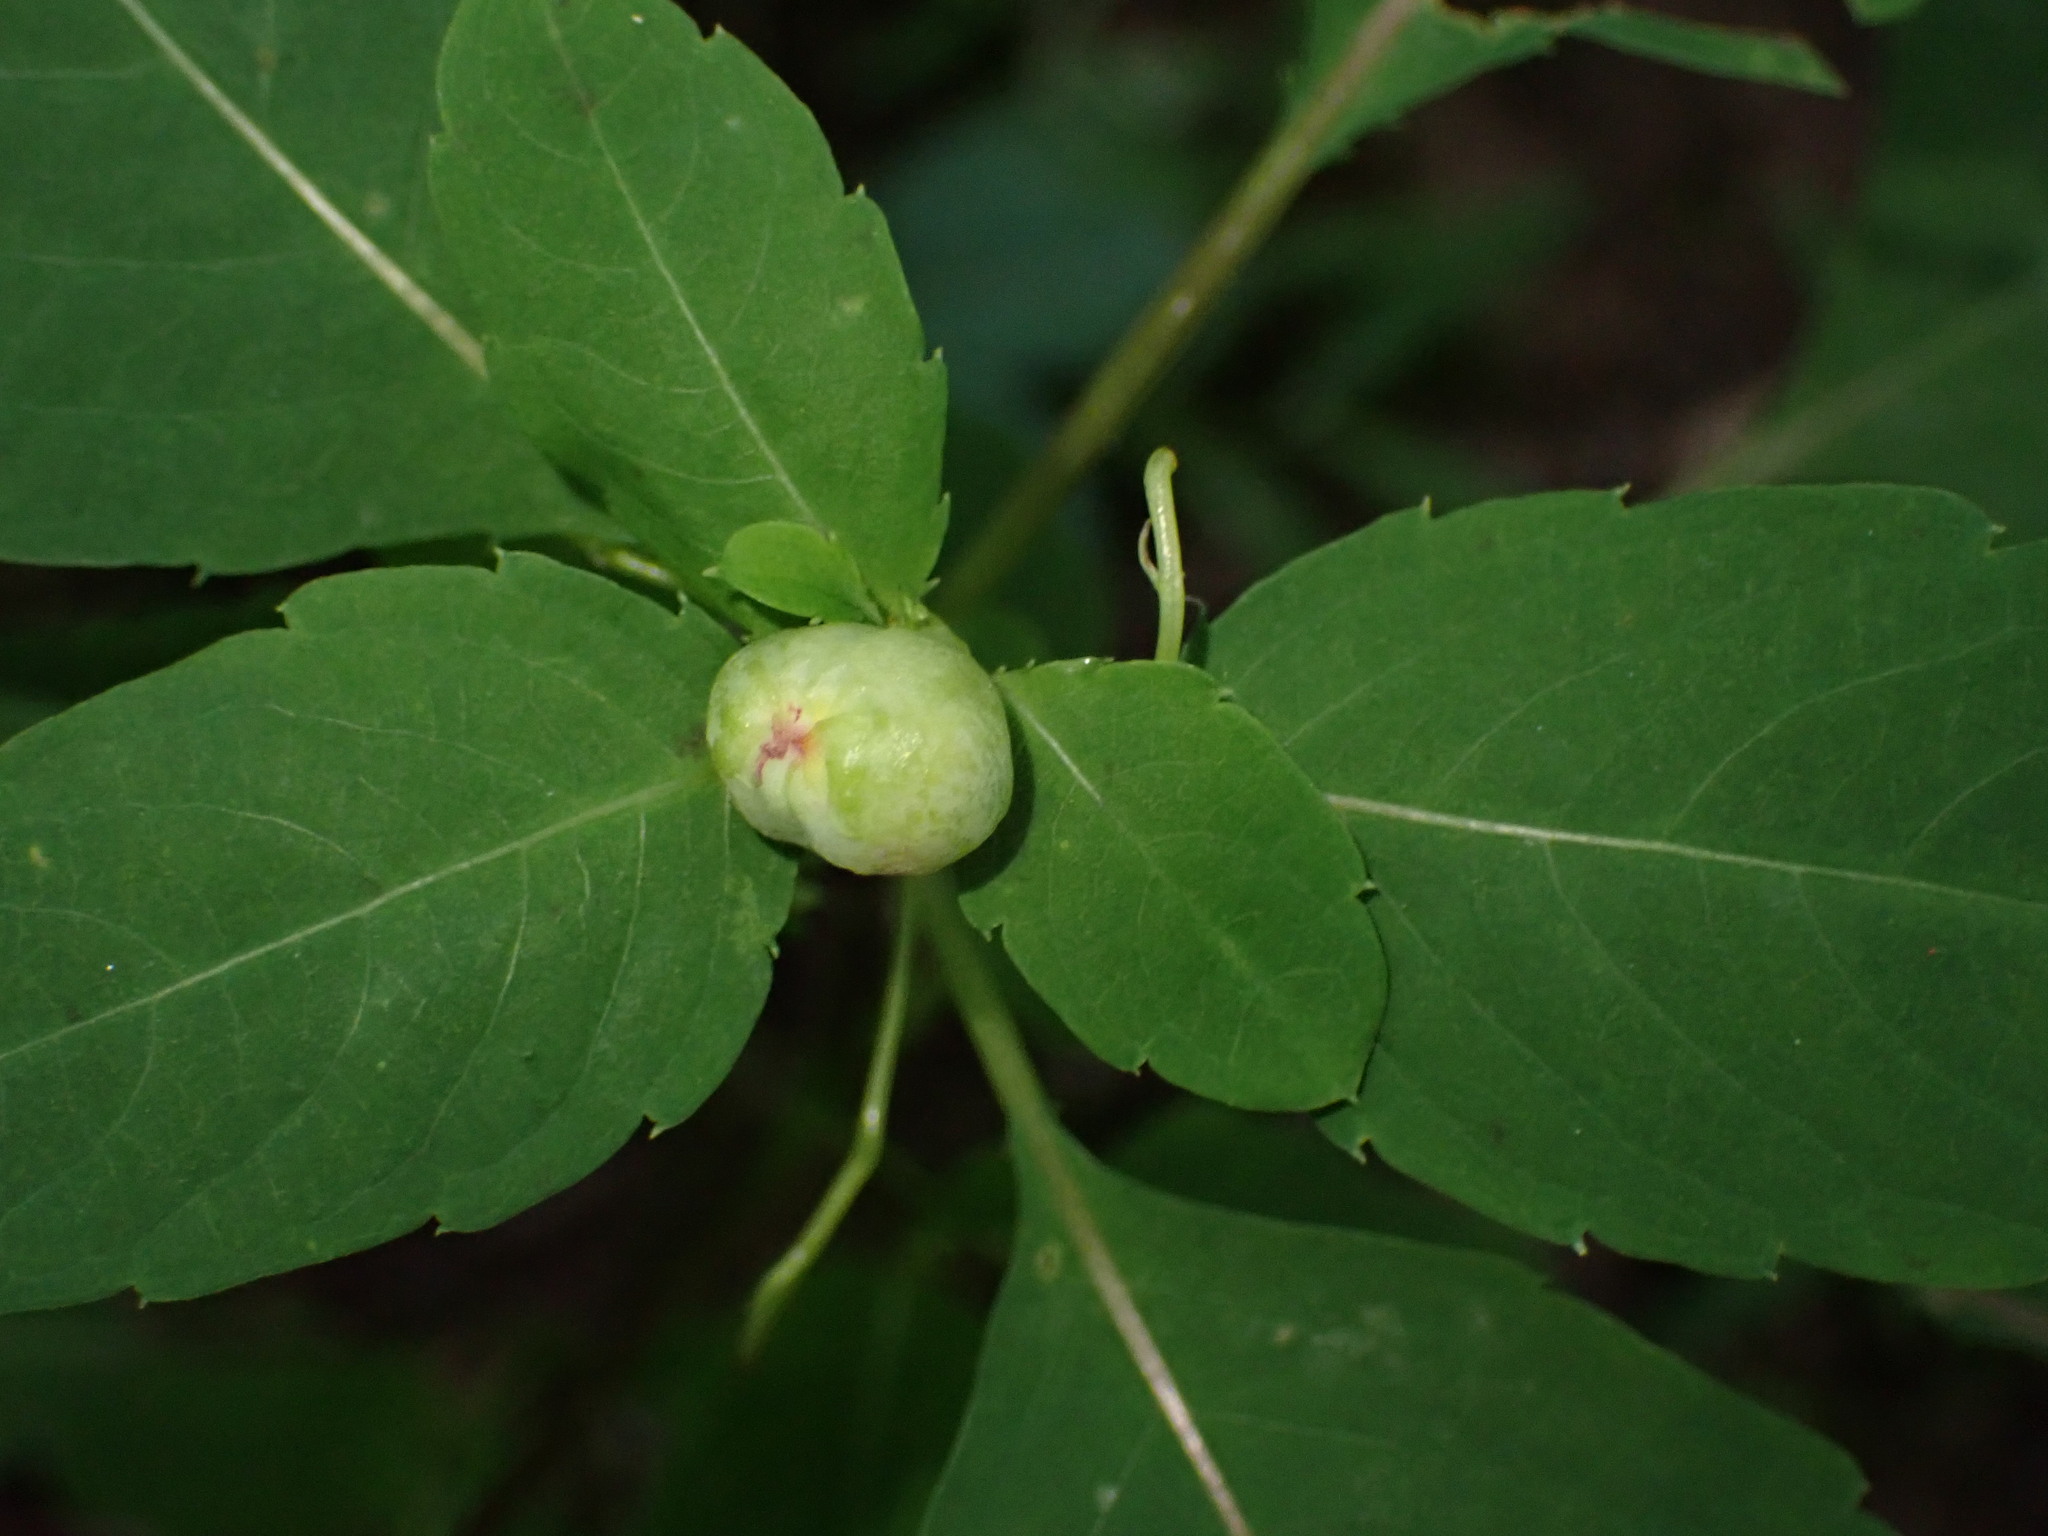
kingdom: Animalia
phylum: Arthropoda
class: Insecta
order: Diptera
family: Cecidomyiidae
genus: Schizomyia
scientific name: Schizomyia impatientis
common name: Jewelweed gall midge
